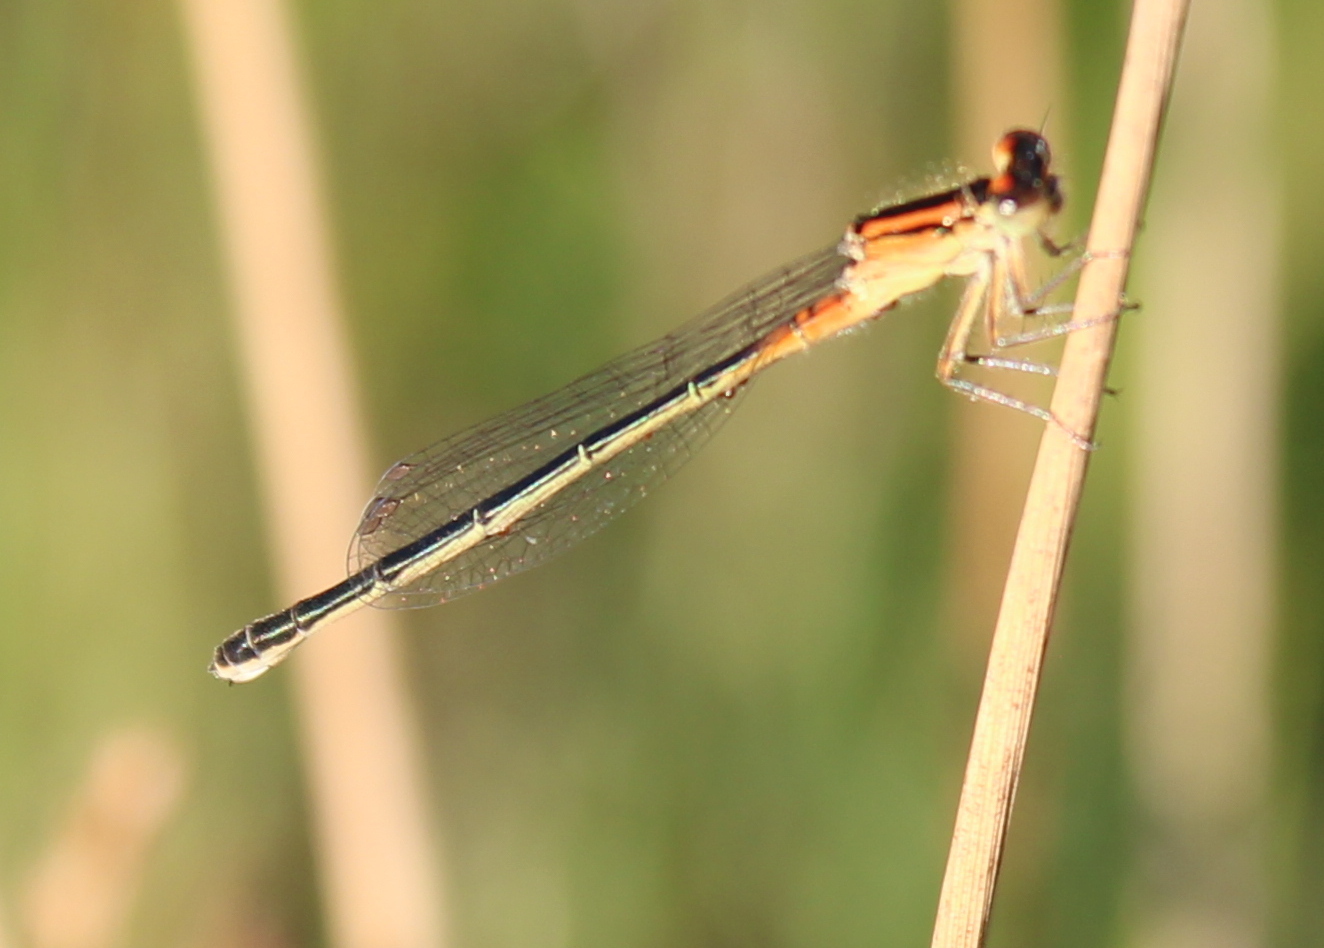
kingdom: Animalia
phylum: Arthropoda
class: Insecta
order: Odonata
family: Coenagrionidae
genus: Ischnura
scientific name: Ischnura verticalis
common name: Eastern forktail
